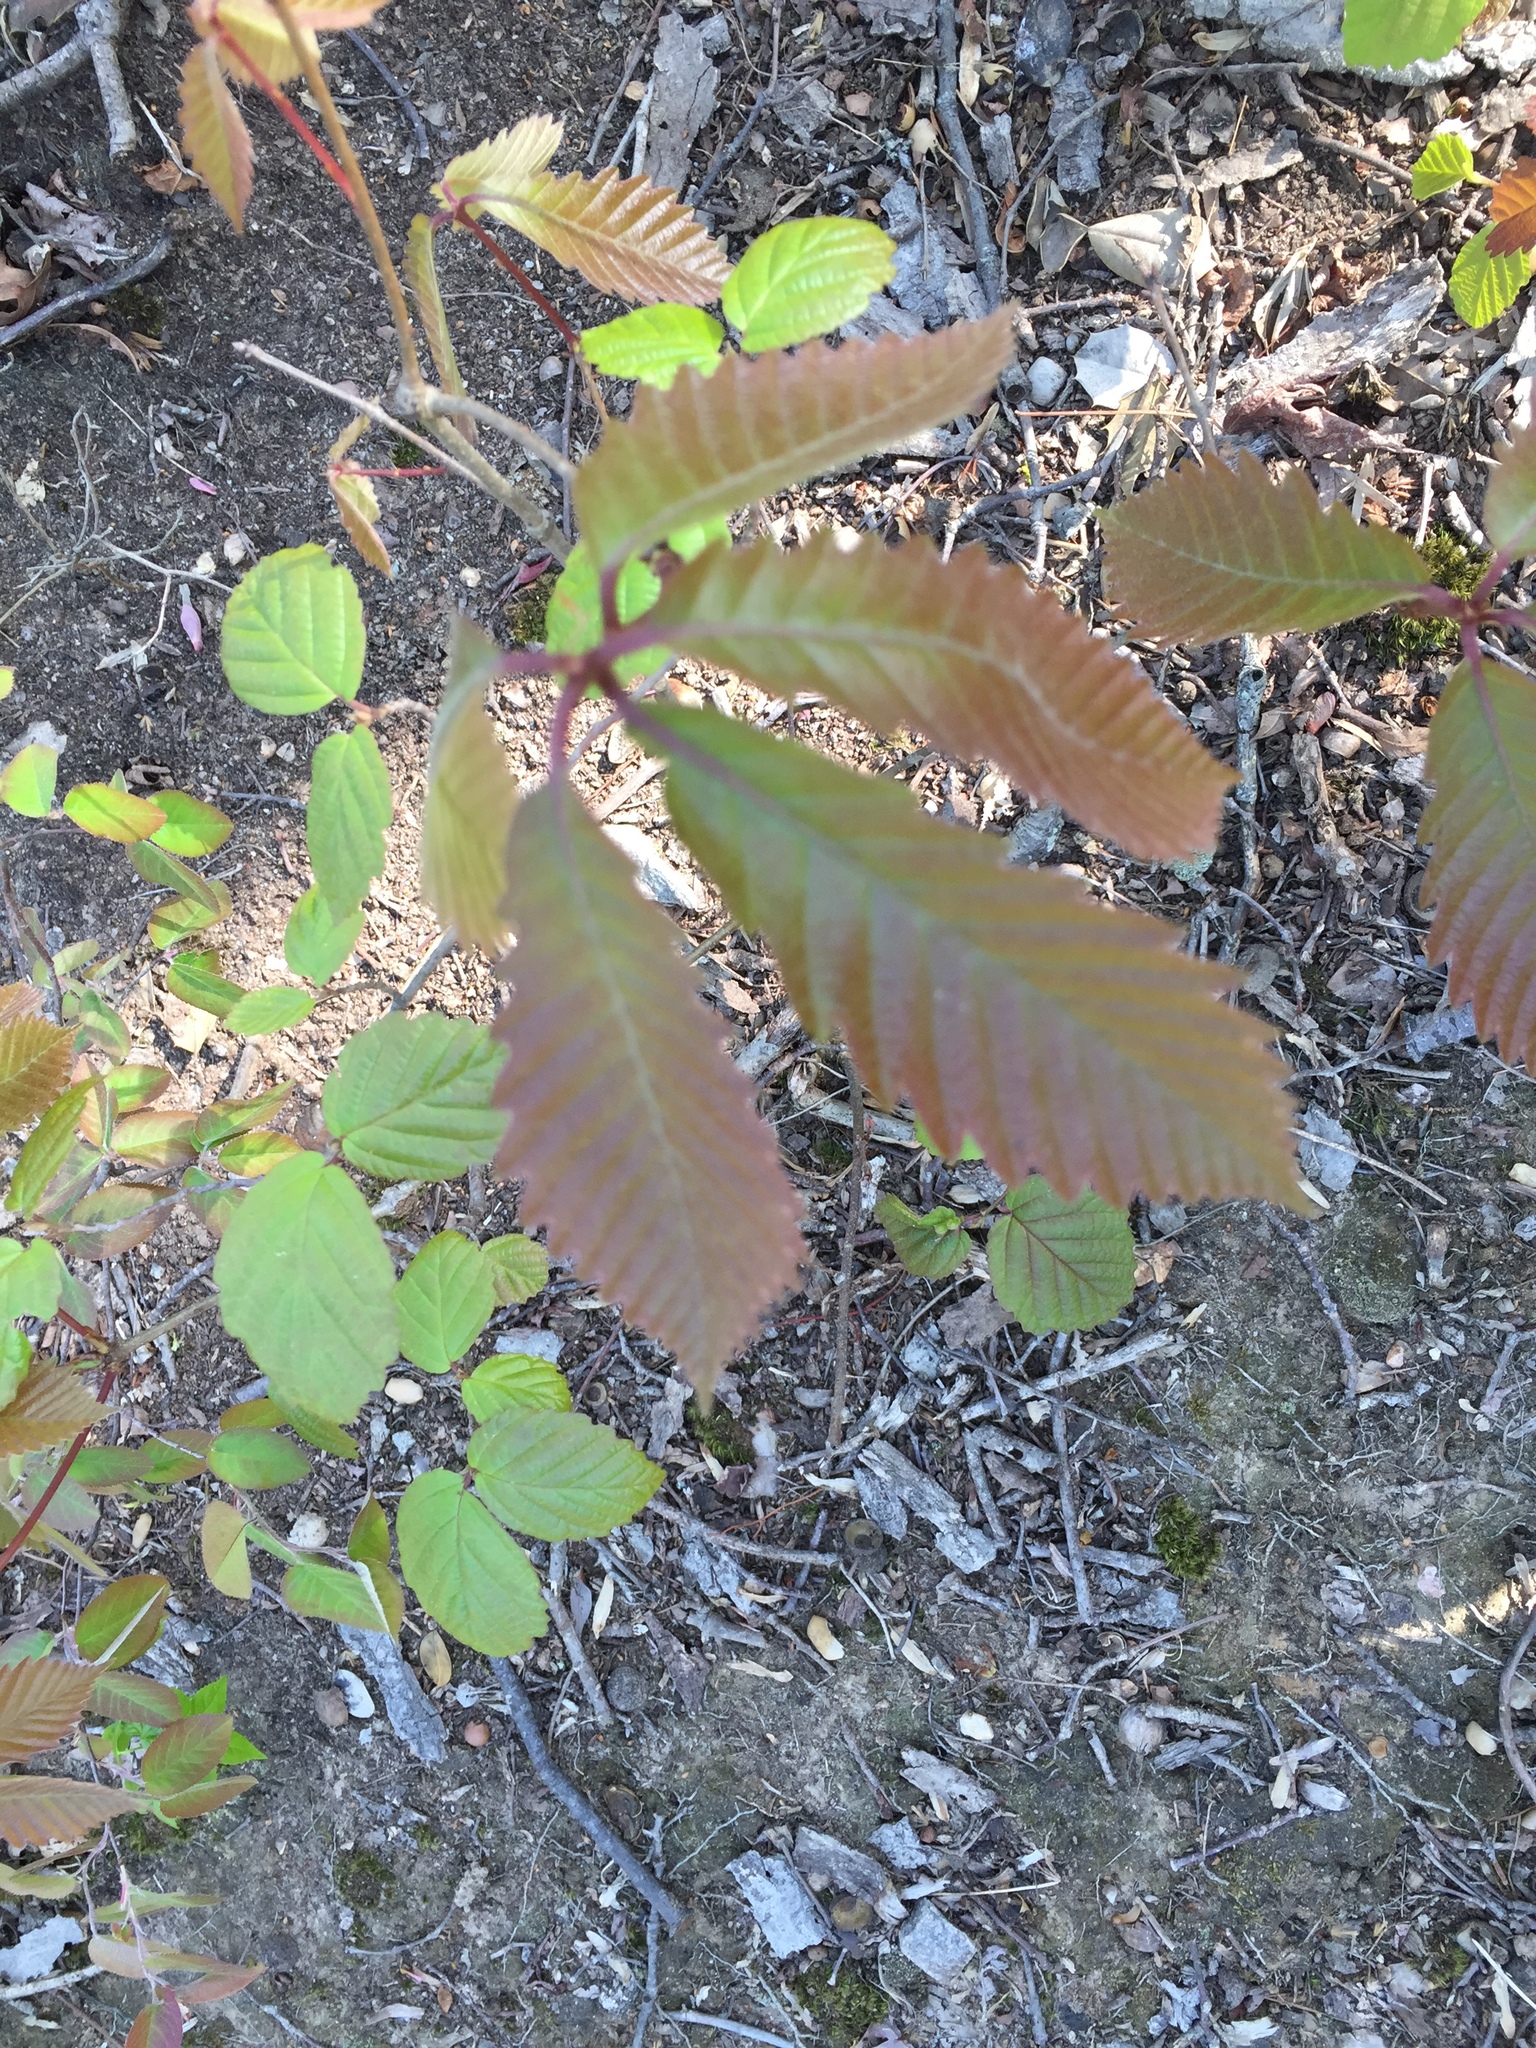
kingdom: Plantae
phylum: Tracheophyta
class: Magnoliopsida
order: Fagales
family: Fagaceae
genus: Quercus
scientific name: Quercus montana
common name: Chestnut oak
